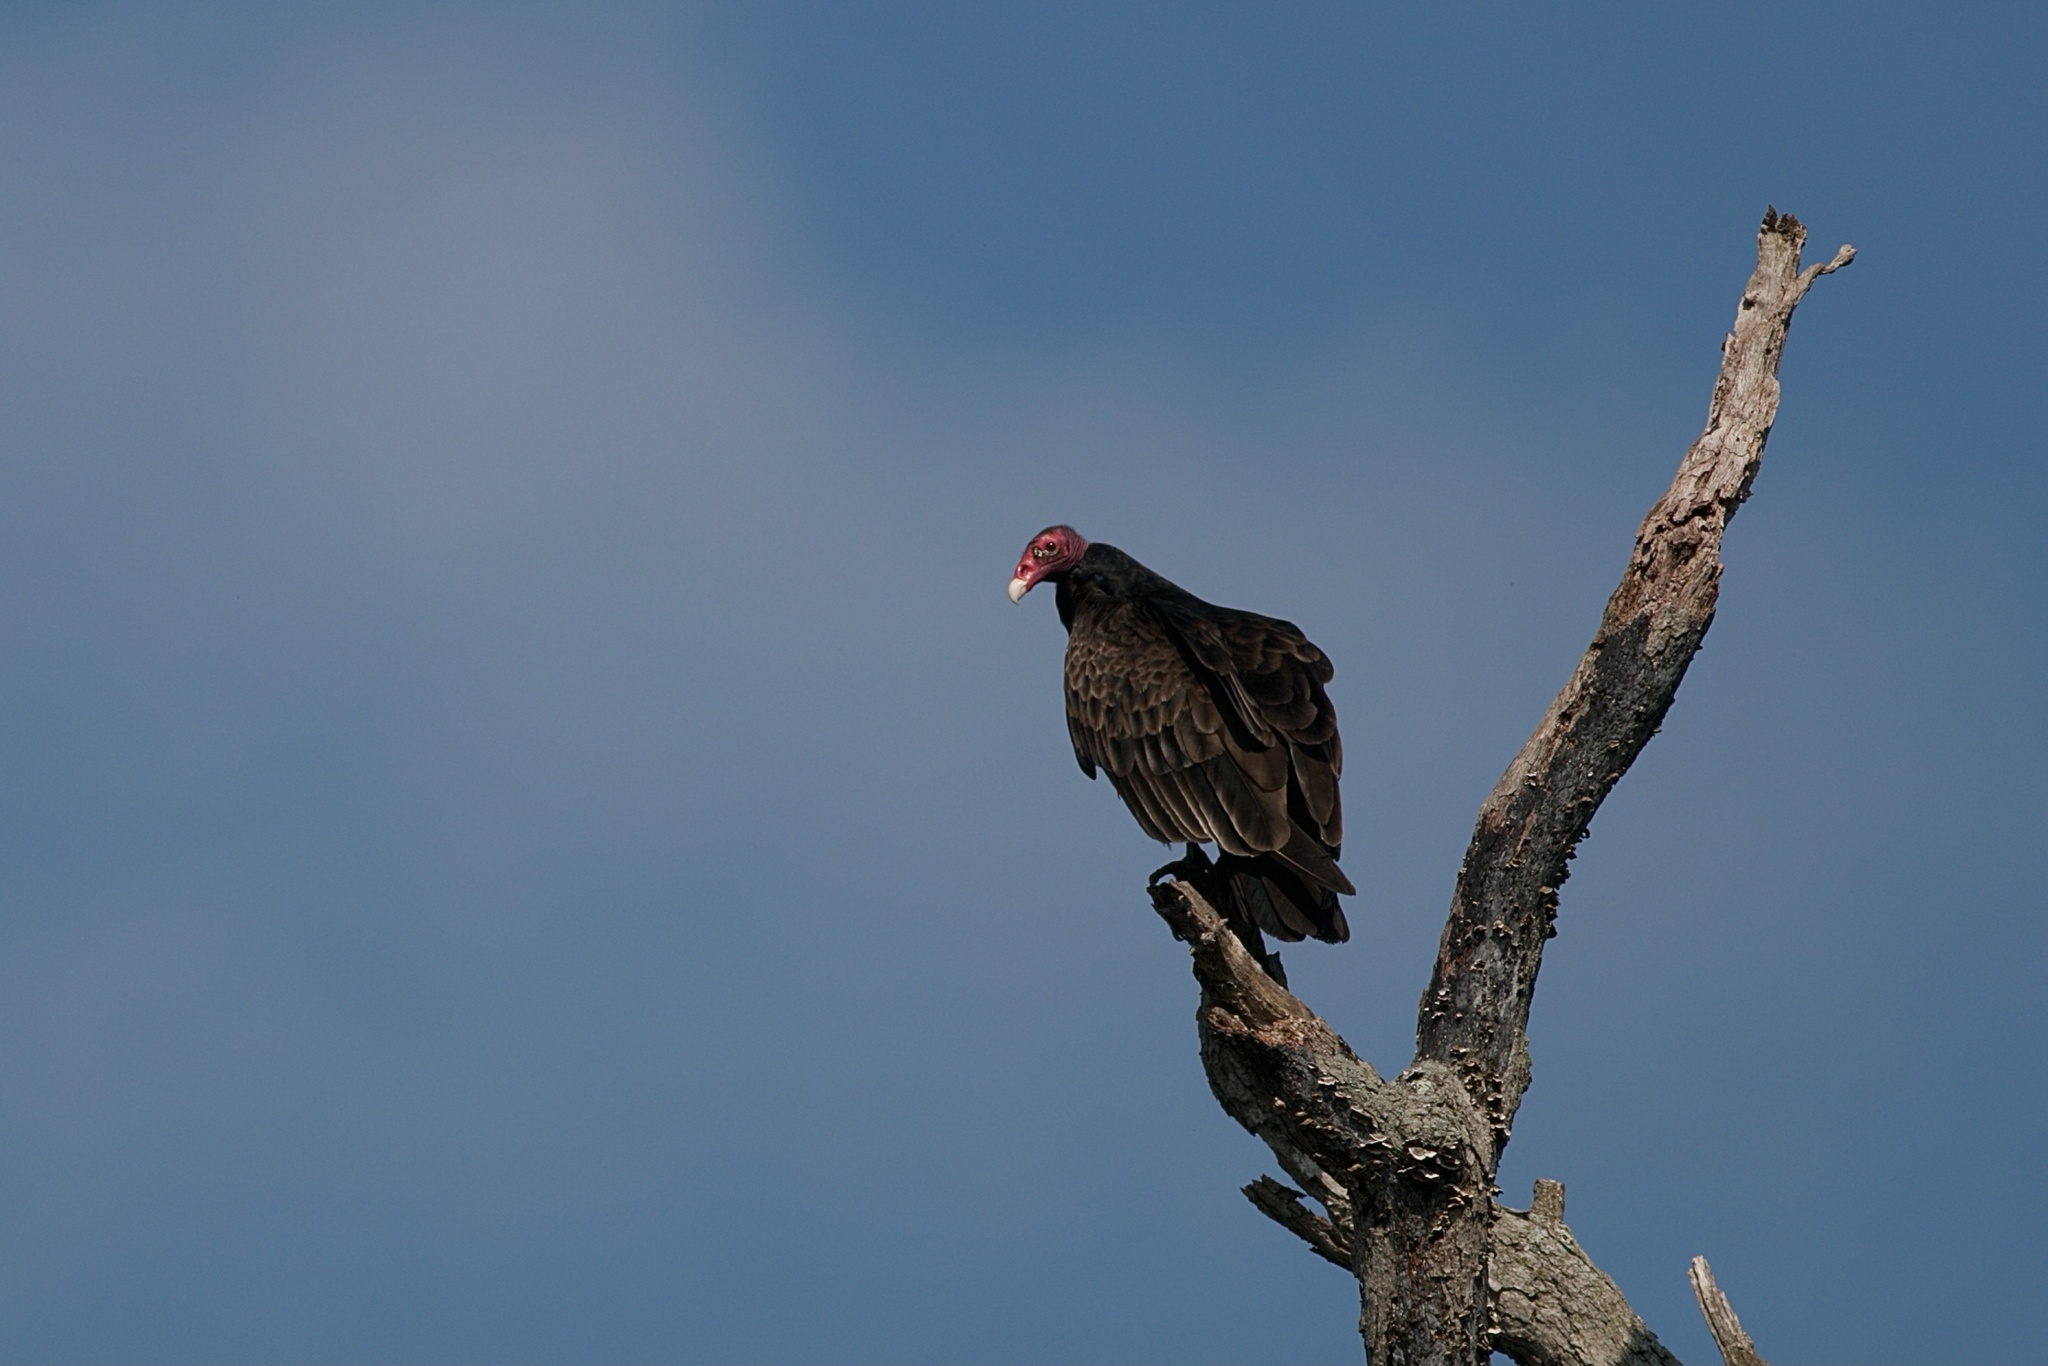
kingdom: Animalia
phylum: Chordata
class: Aves
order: Accipitriformes
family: Cathartidae
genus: Cathartes
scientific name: Cathartes aura
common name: Turkey vulture
